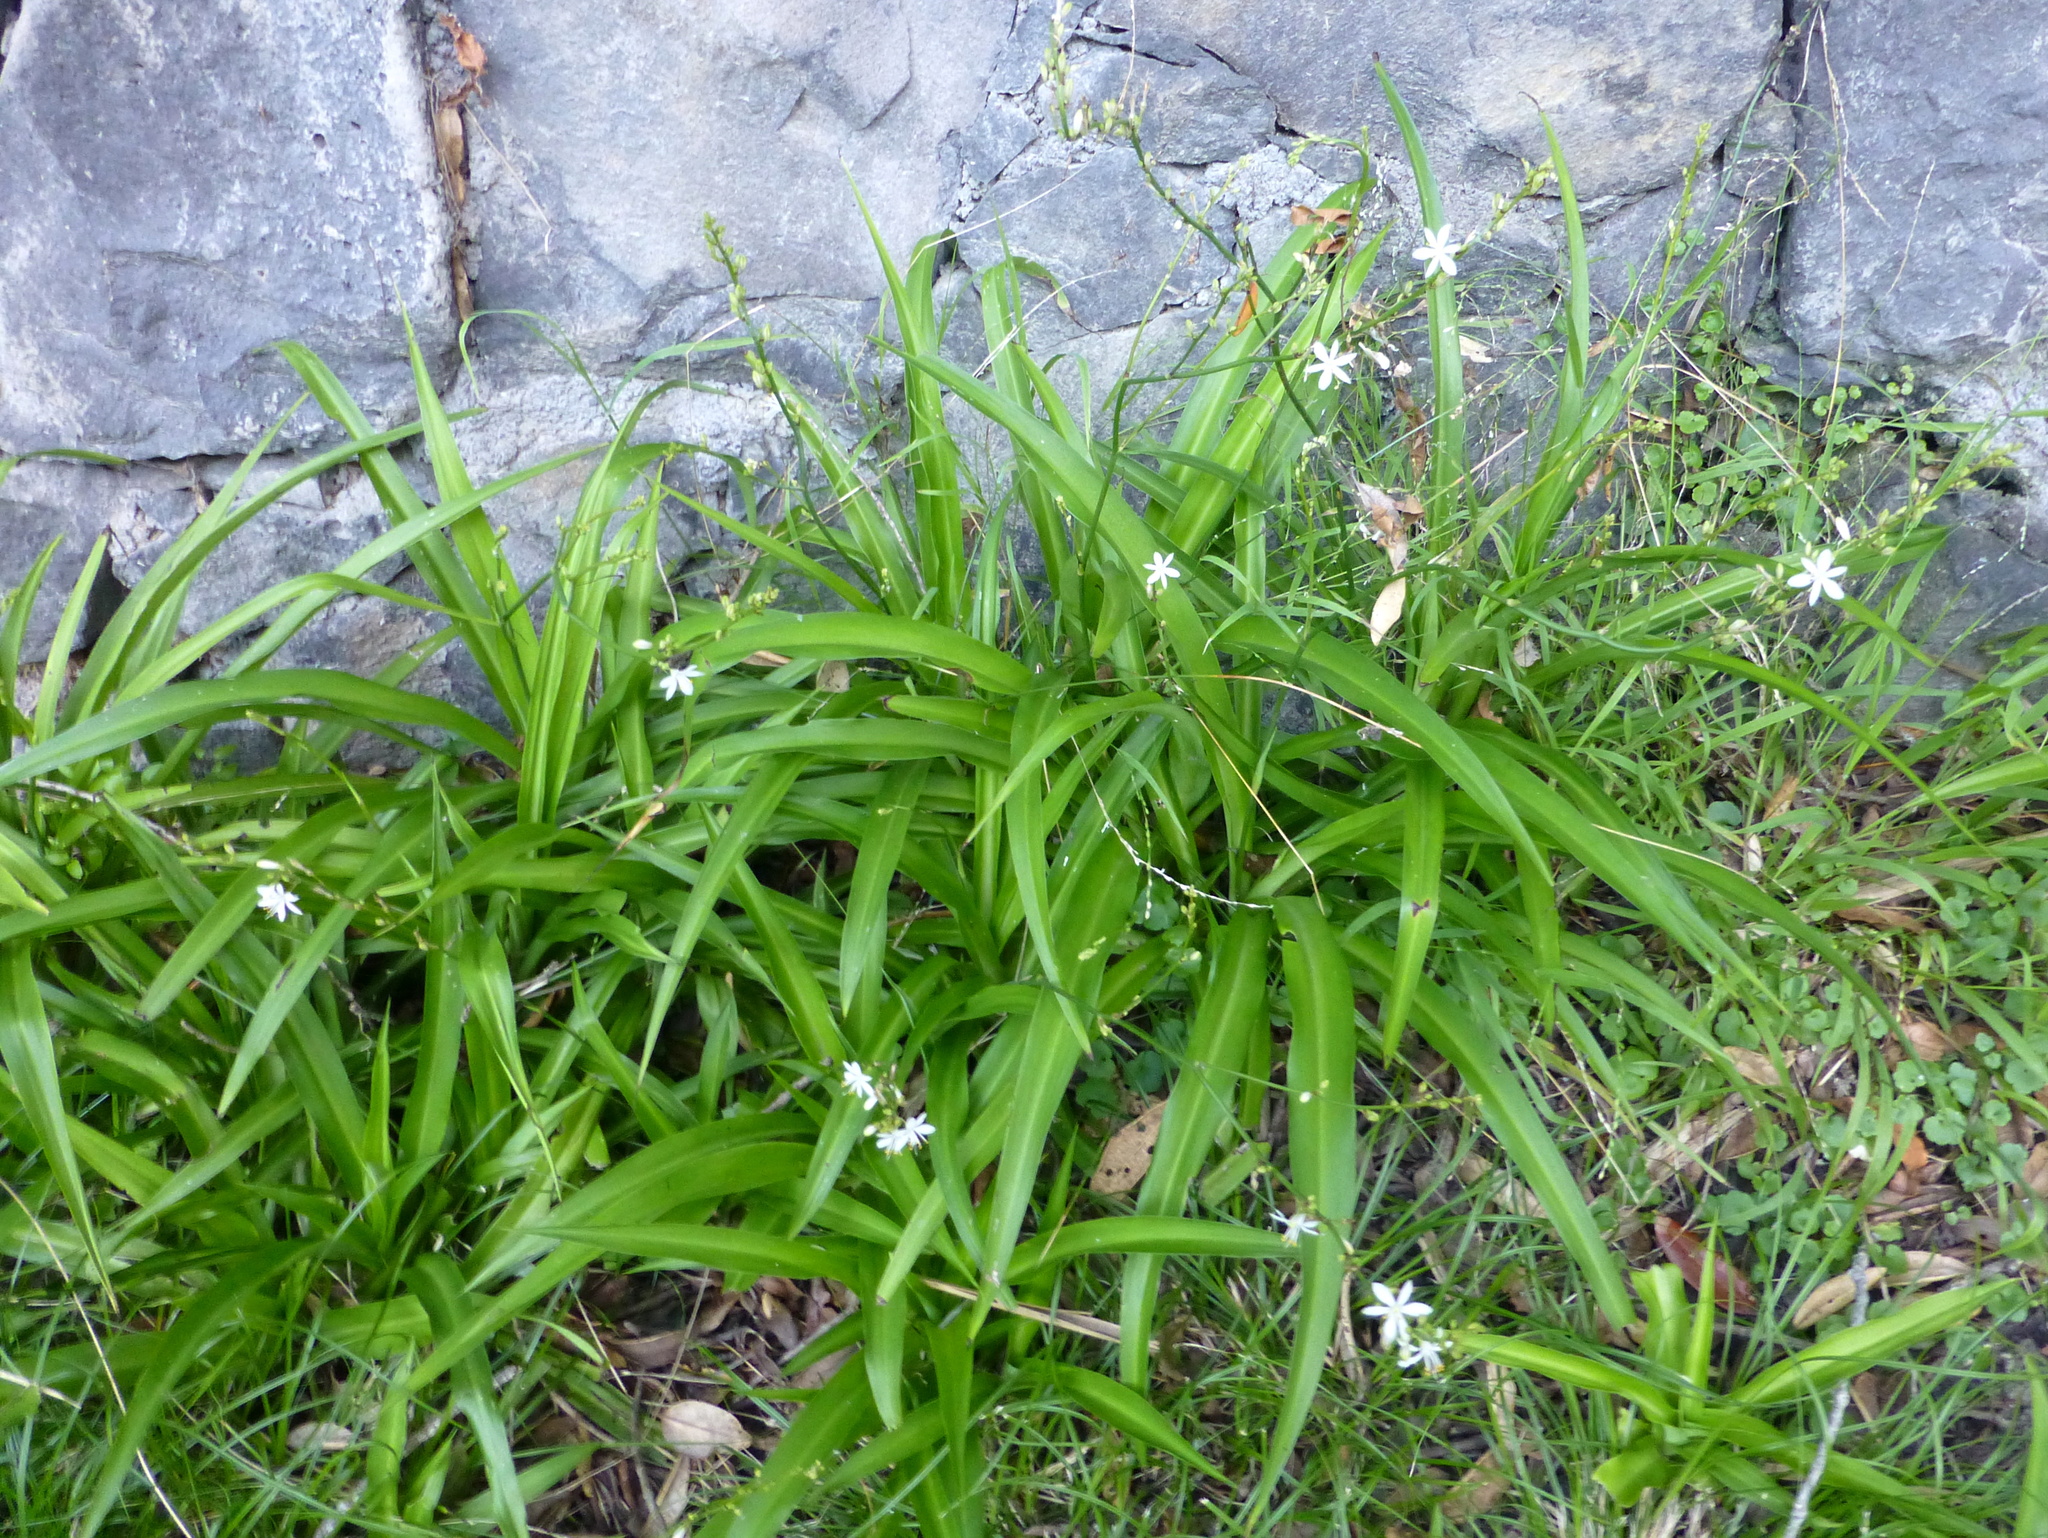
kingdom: Plantae
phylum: Tracheophyta
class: Liliopsida
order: Asparagales
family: Asparagaceae
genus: Chlorophytum
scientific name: Chlorophytum comosum
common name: Spider plant
